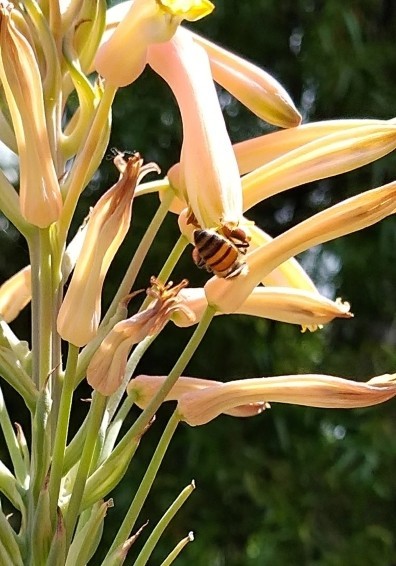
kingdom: Animalia
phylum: Arthropoda
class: Insecta
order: Hymenoptera
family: Apidae
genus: Apis
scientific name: Apis mellifera
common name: Honey bee
